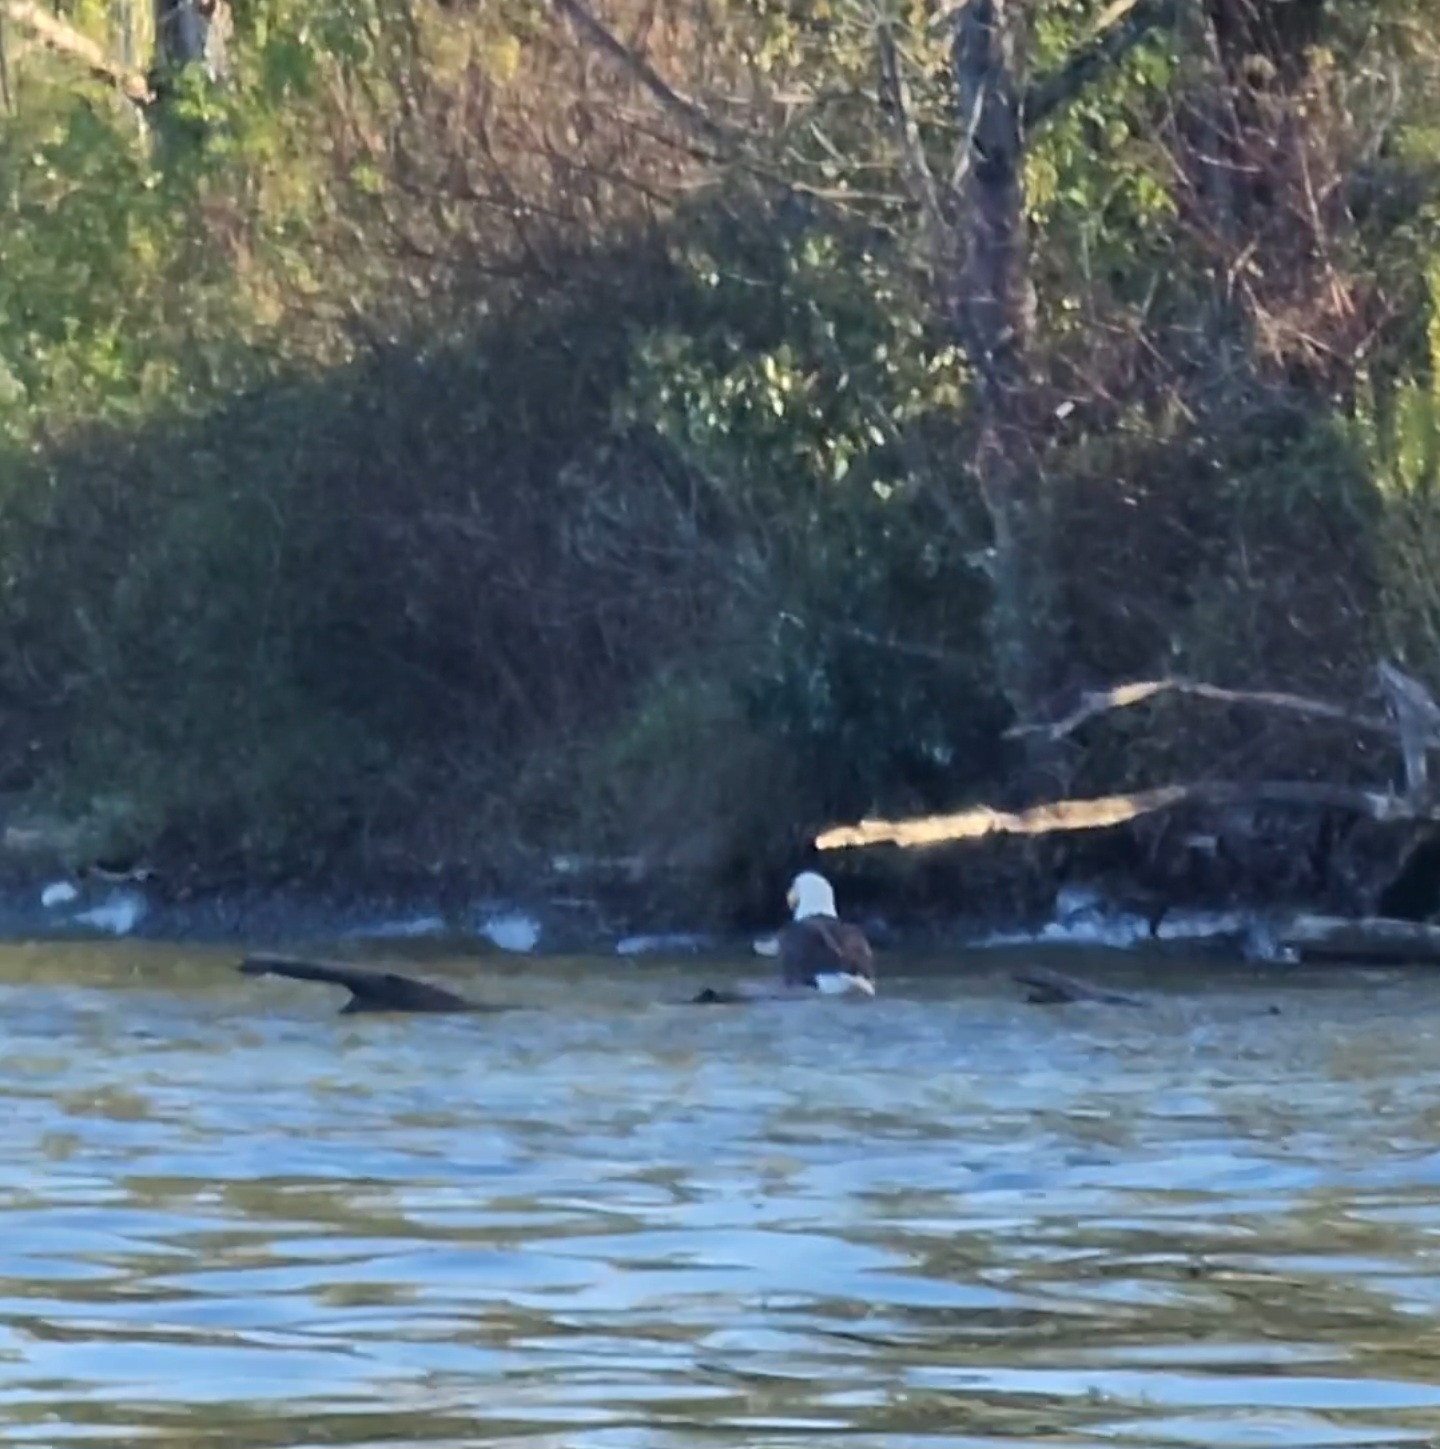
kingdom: Animalia
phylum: Chordata
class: Aves
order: Accipitriformes
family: Accipitridae
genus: Haliaeetus
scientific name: Haliaeetus leucocephalus
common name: Bald eagle
